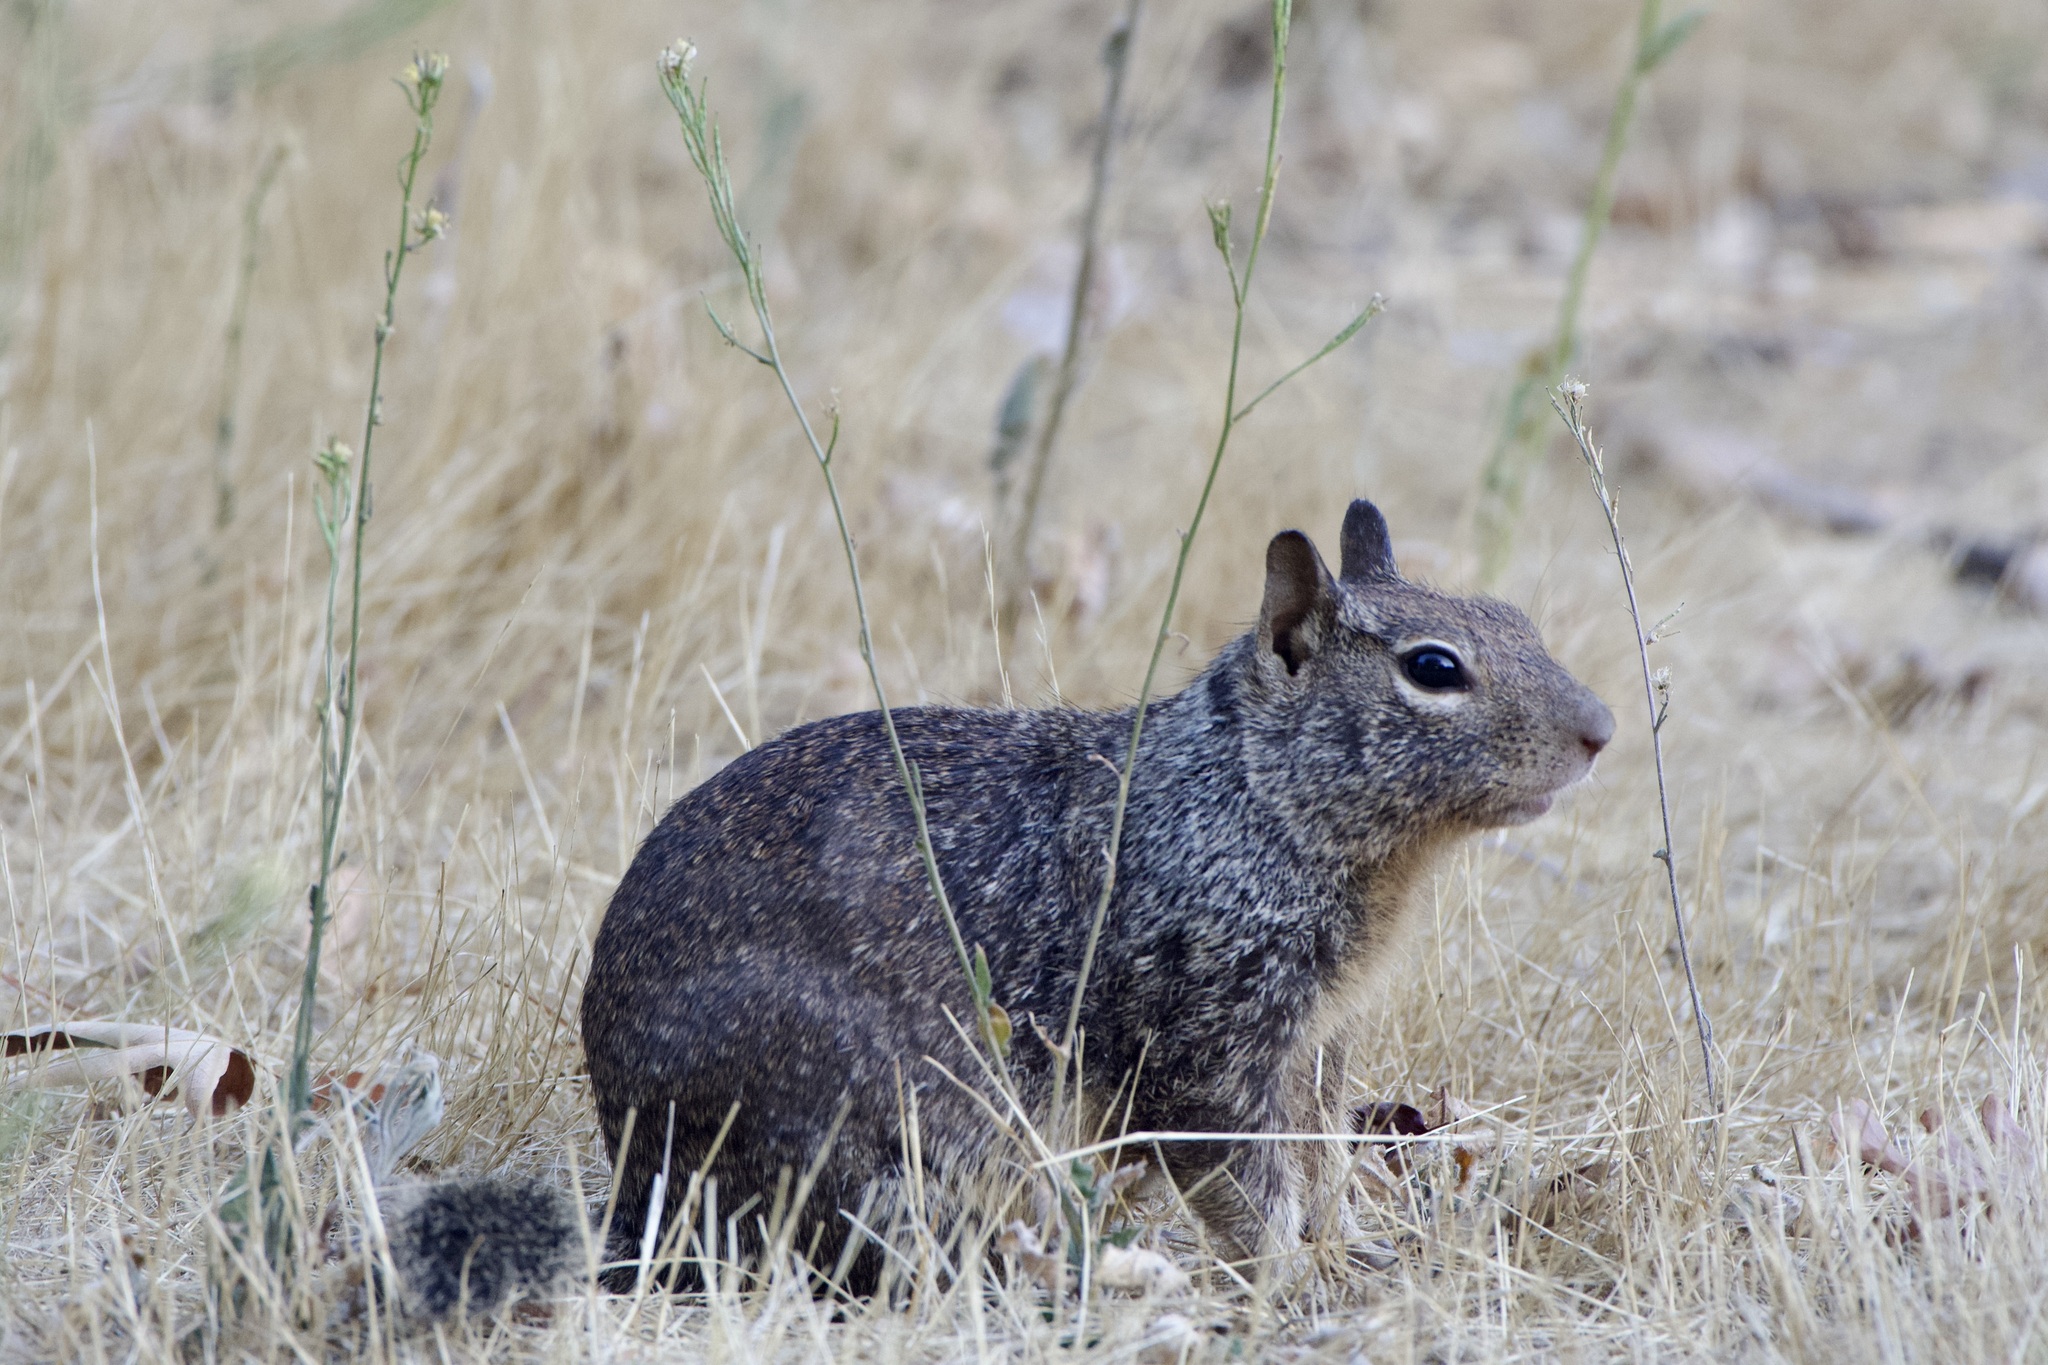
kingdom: Animalia
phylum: Chordata
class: Mammalia
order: Rodentia
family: Sciuridae
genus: Otospermophilus
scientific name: Otospermophilus beecheyi
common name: California ground squirrel
